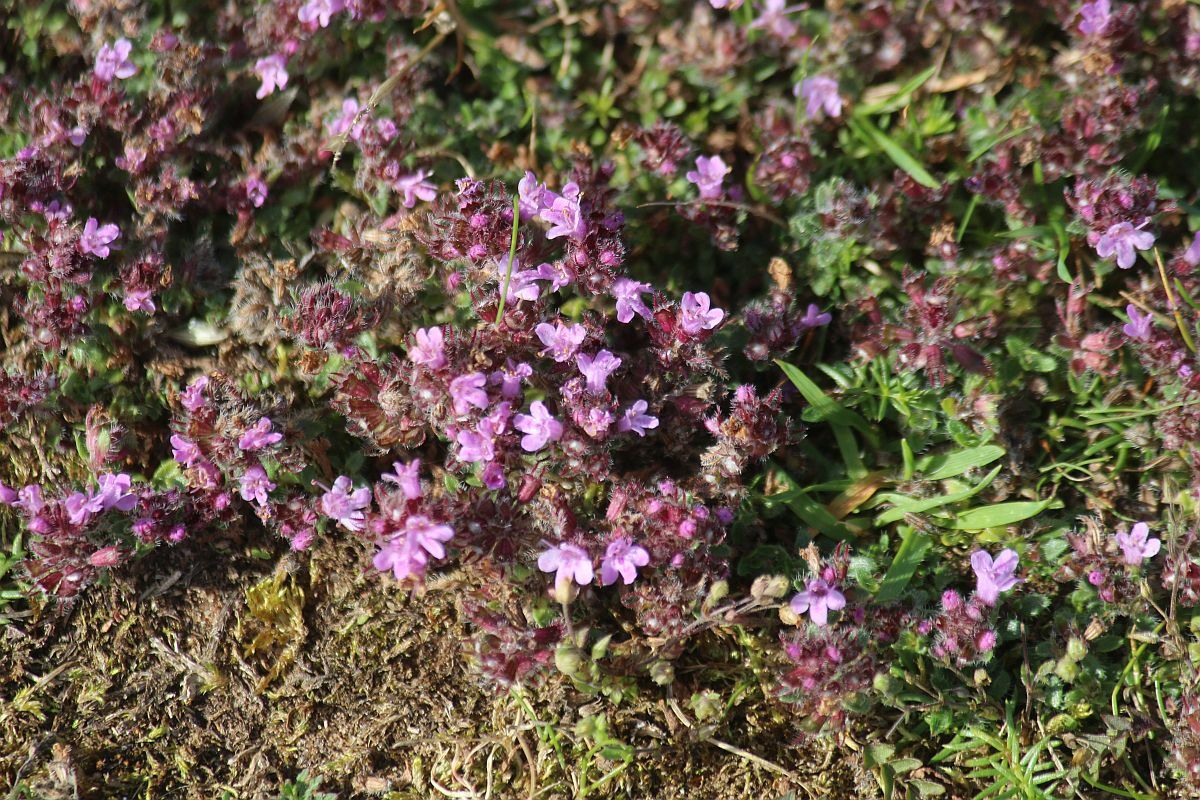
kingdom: Plantae
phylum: Tracheophyta
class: Magnoliopsida
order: Lamiales
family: Lamiaceae
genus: Thymus
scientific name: Thymus praecox
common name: Wild thyme
